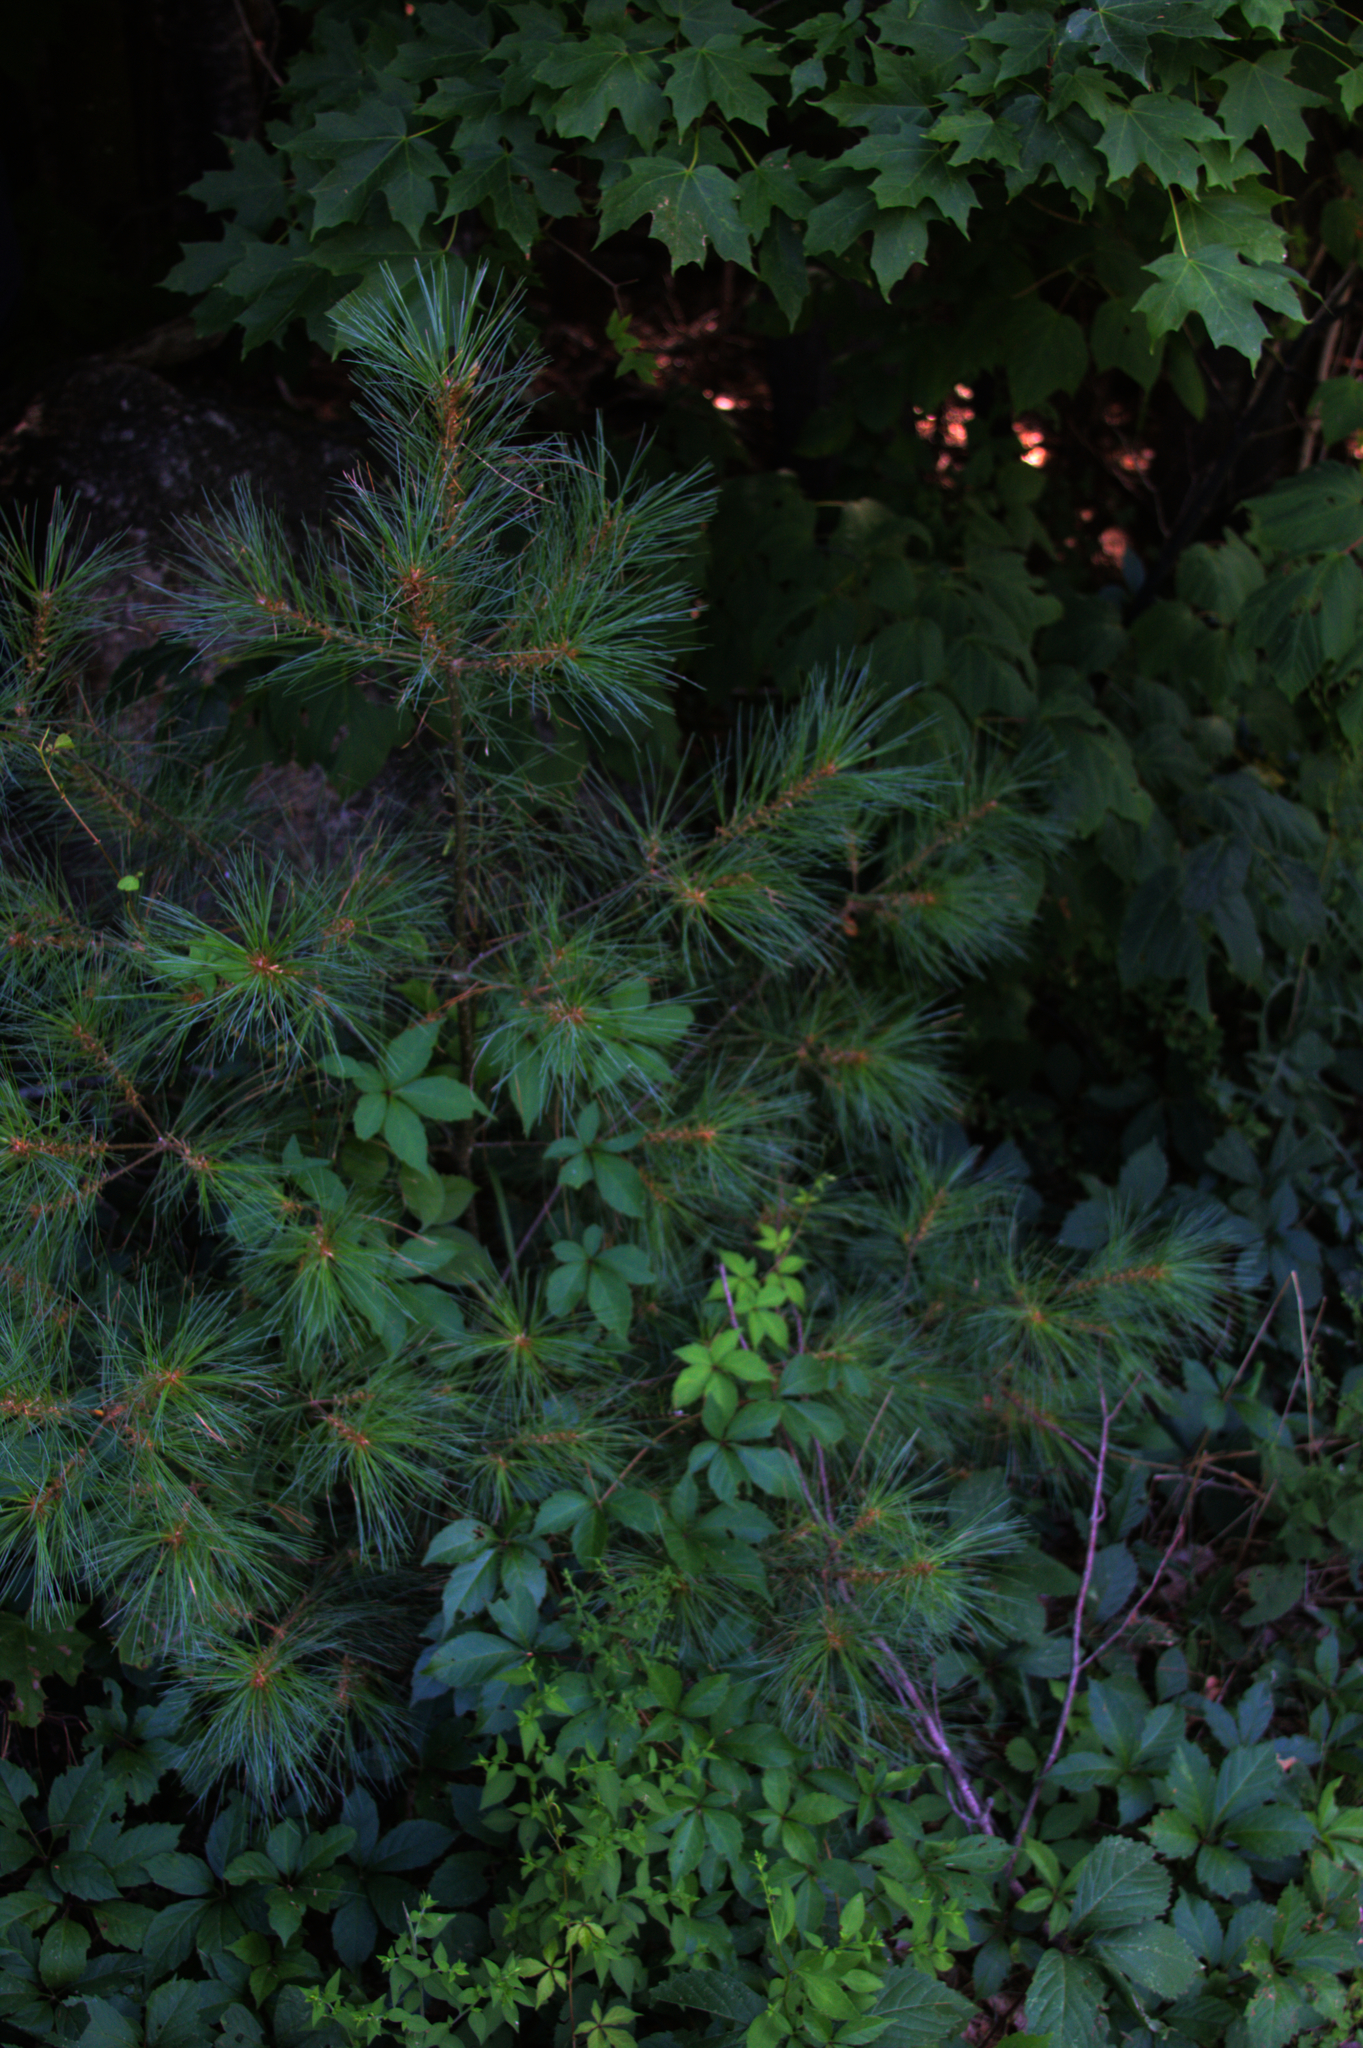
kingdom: Plantae
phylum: Tracheophyta
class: Pinopsida
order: Pinales
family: Pinaceae
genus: Pinus
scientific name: Pinus strobus
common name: Weymouth pine
